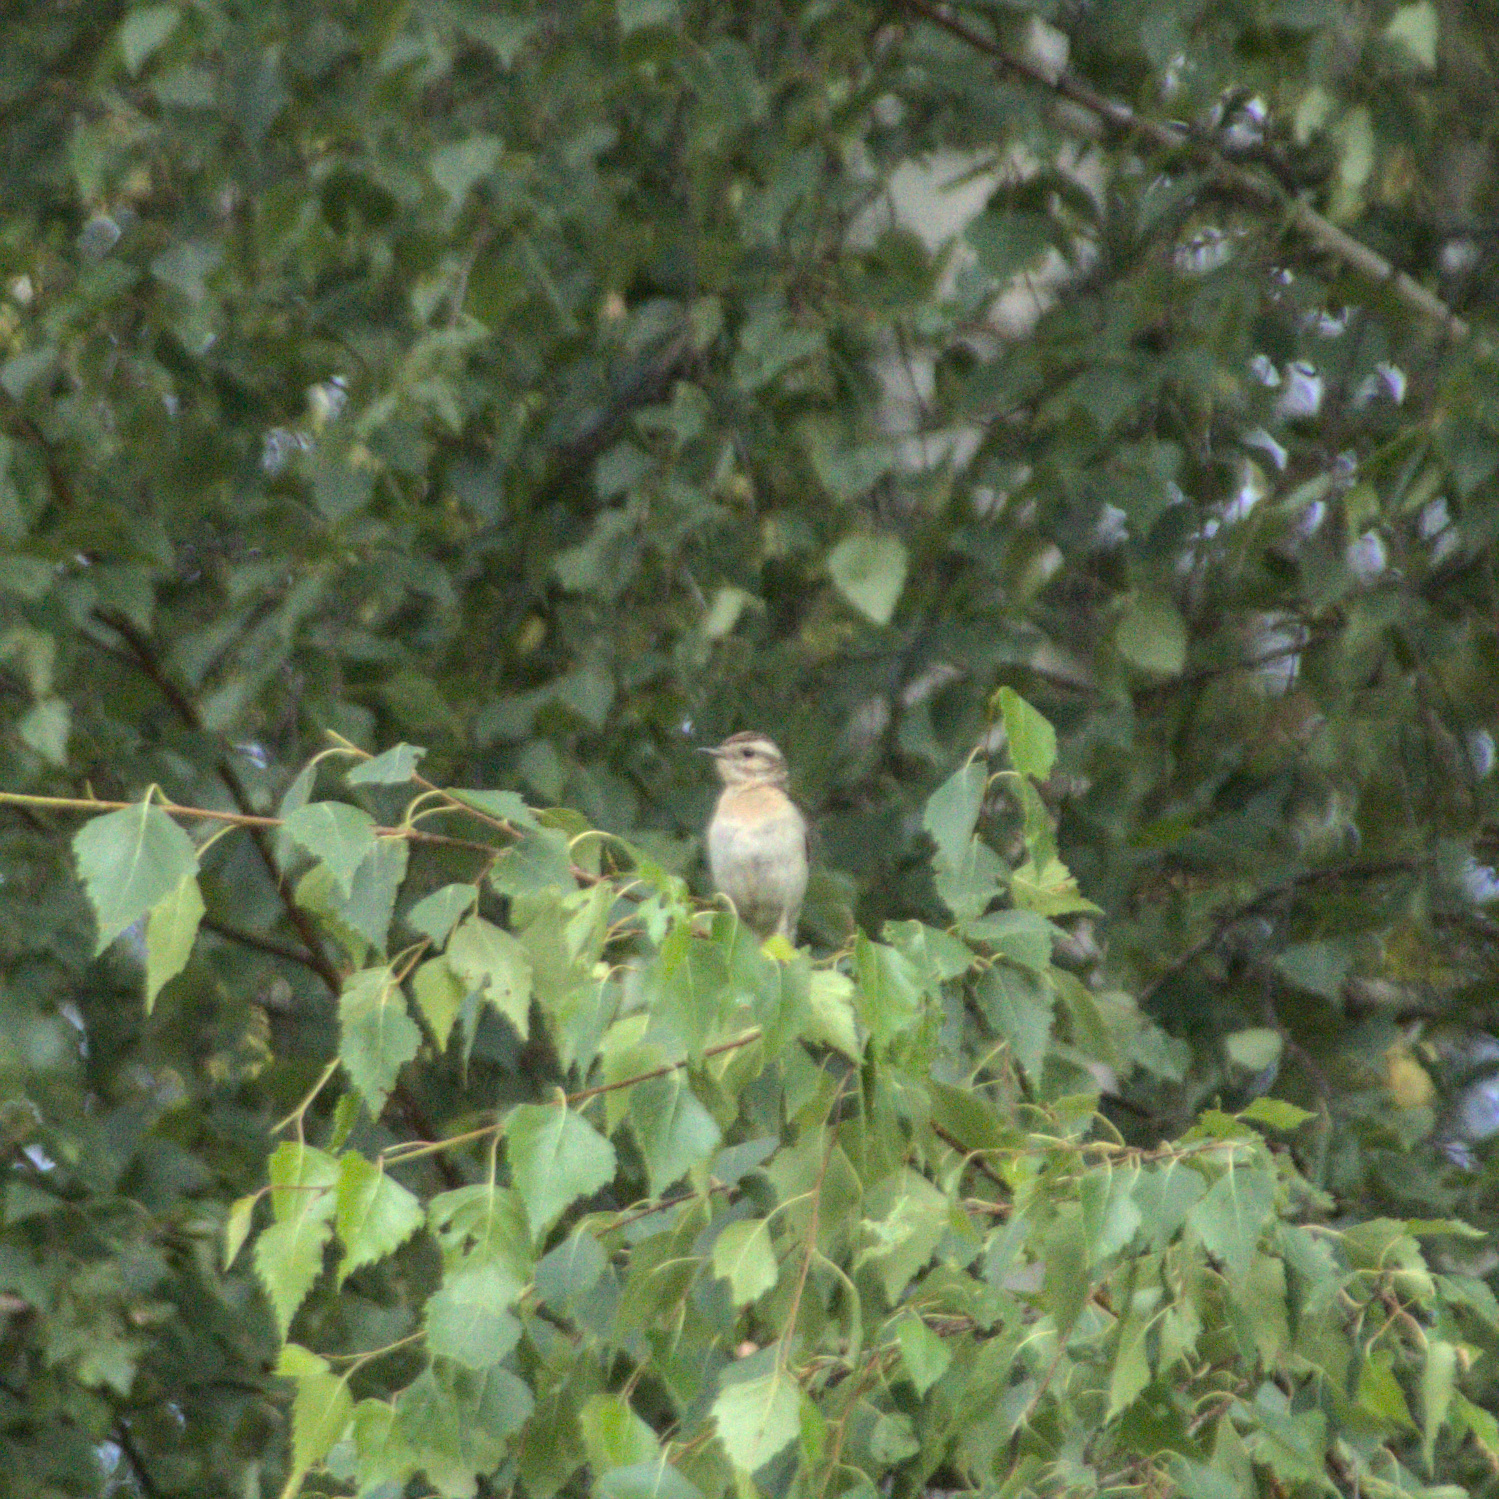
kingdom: Animalia
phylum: Chordata
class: Aves
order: Passeriformes
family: Muscicapidae
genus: Saxicola
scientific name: Saxicola rubetra
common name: Whinchat
